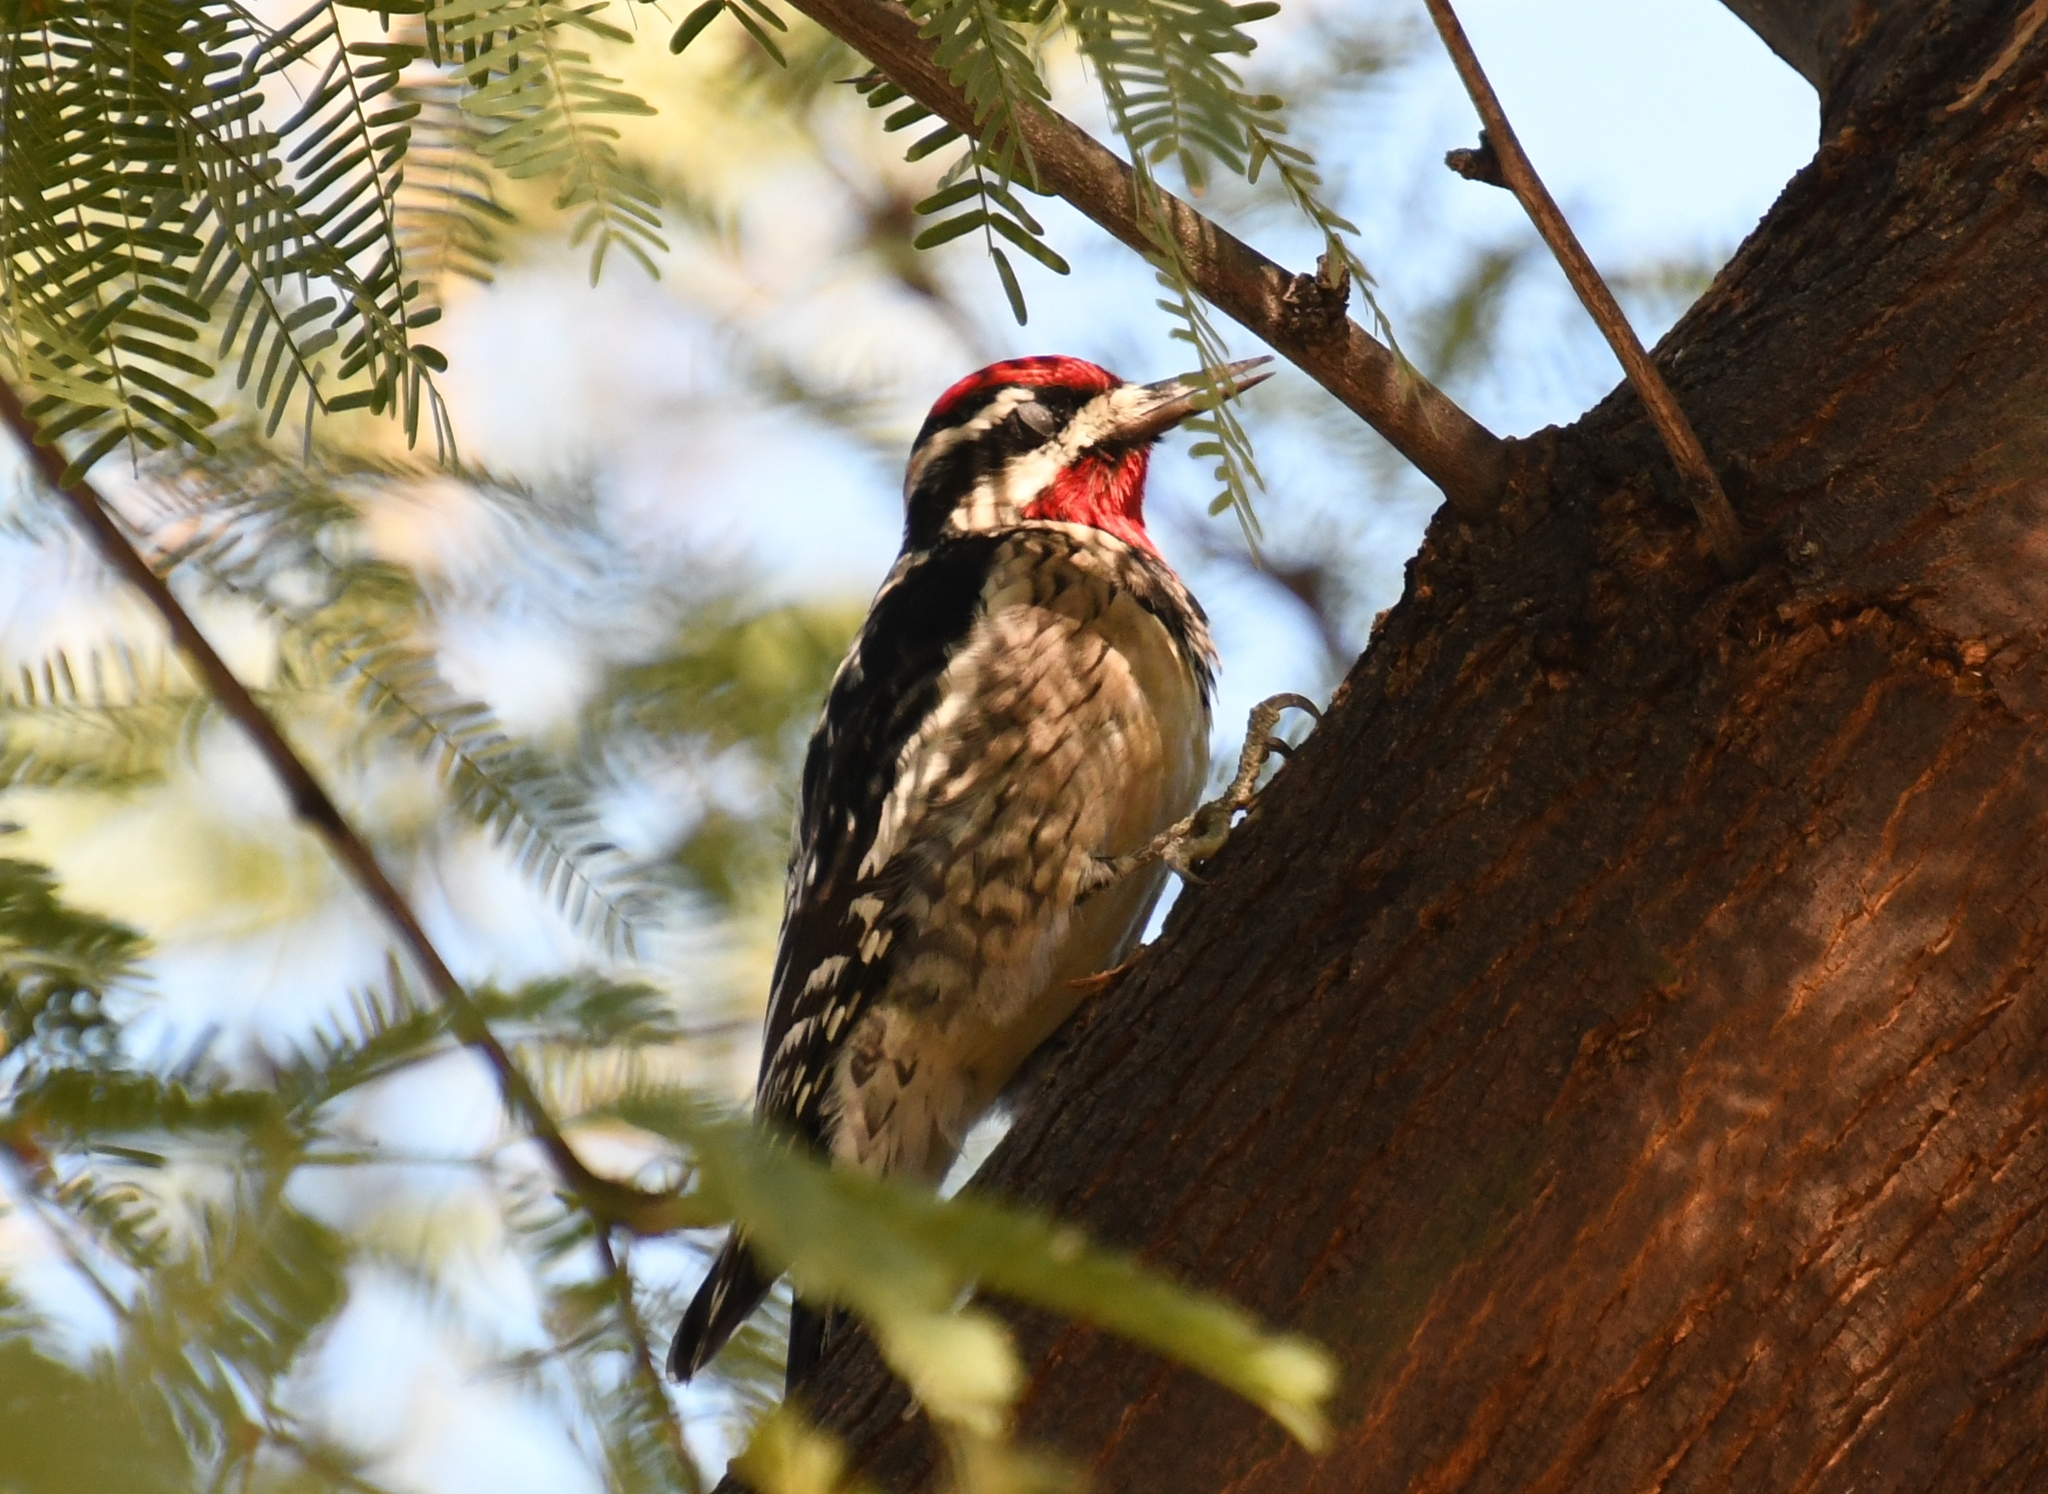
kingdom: Animalia
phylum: Chordata
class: Aves
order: Piciformes
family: Picidae
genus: Sphyrapicus
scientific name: Sphyrapicus nuchalis
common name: Red-naped sapsucker
